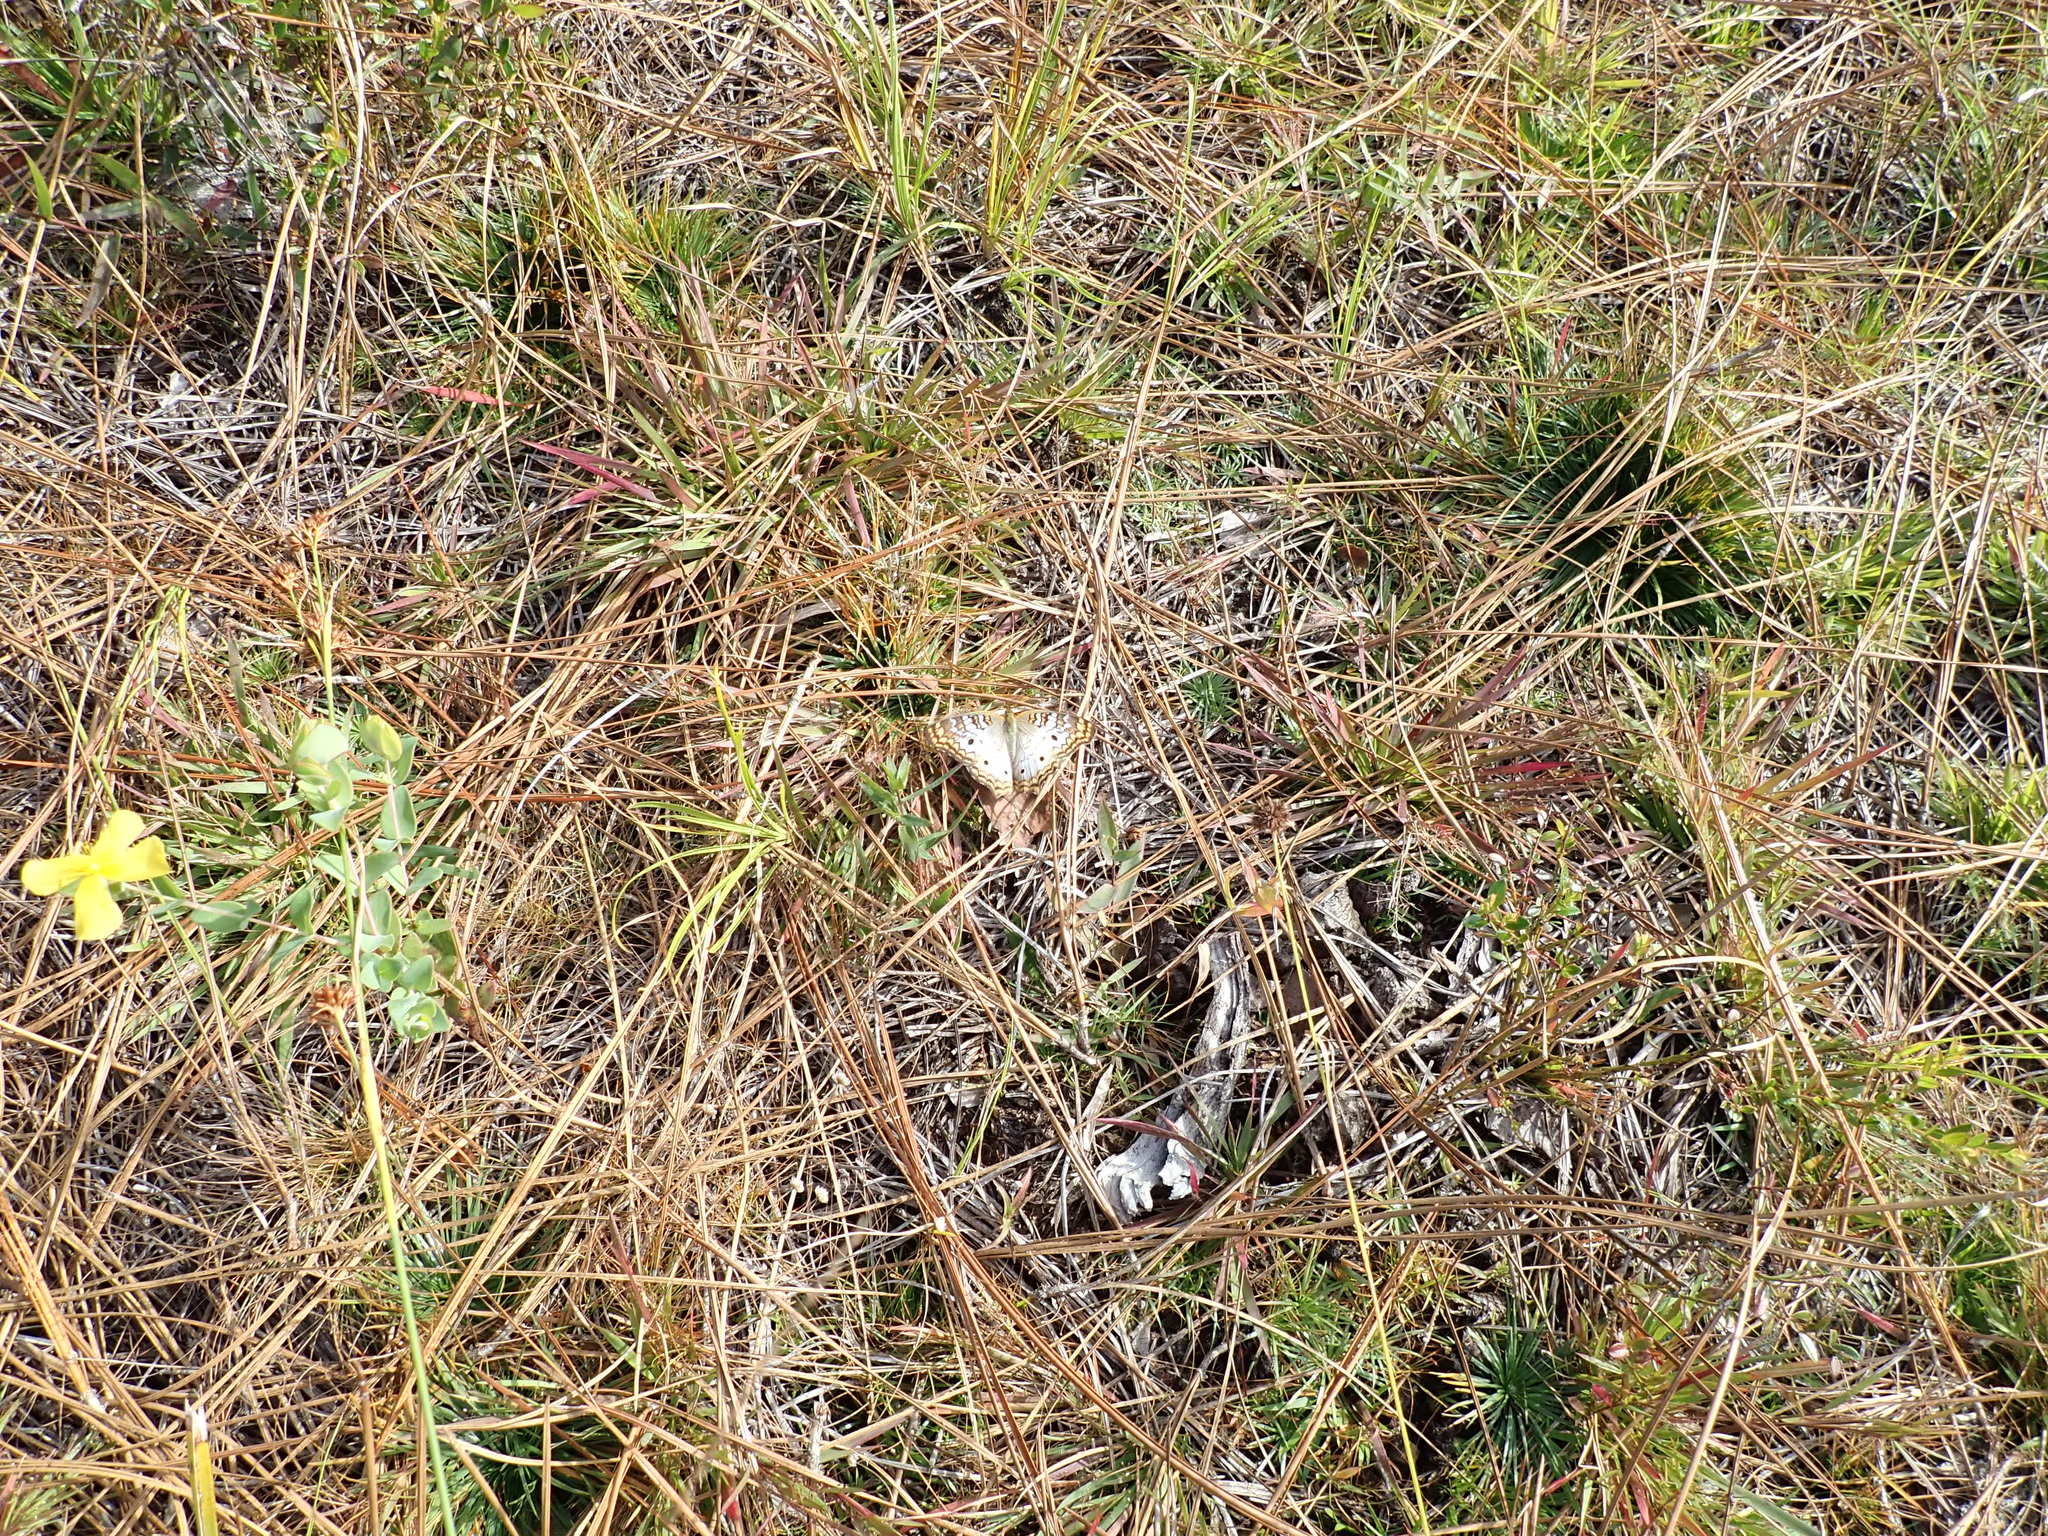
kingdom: Animalia
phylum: Arthropoda
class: Insecta
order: Lepidoptera
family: Nymphalidae
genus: Anartia
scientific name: Anartia jatrophae
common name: White peacock
